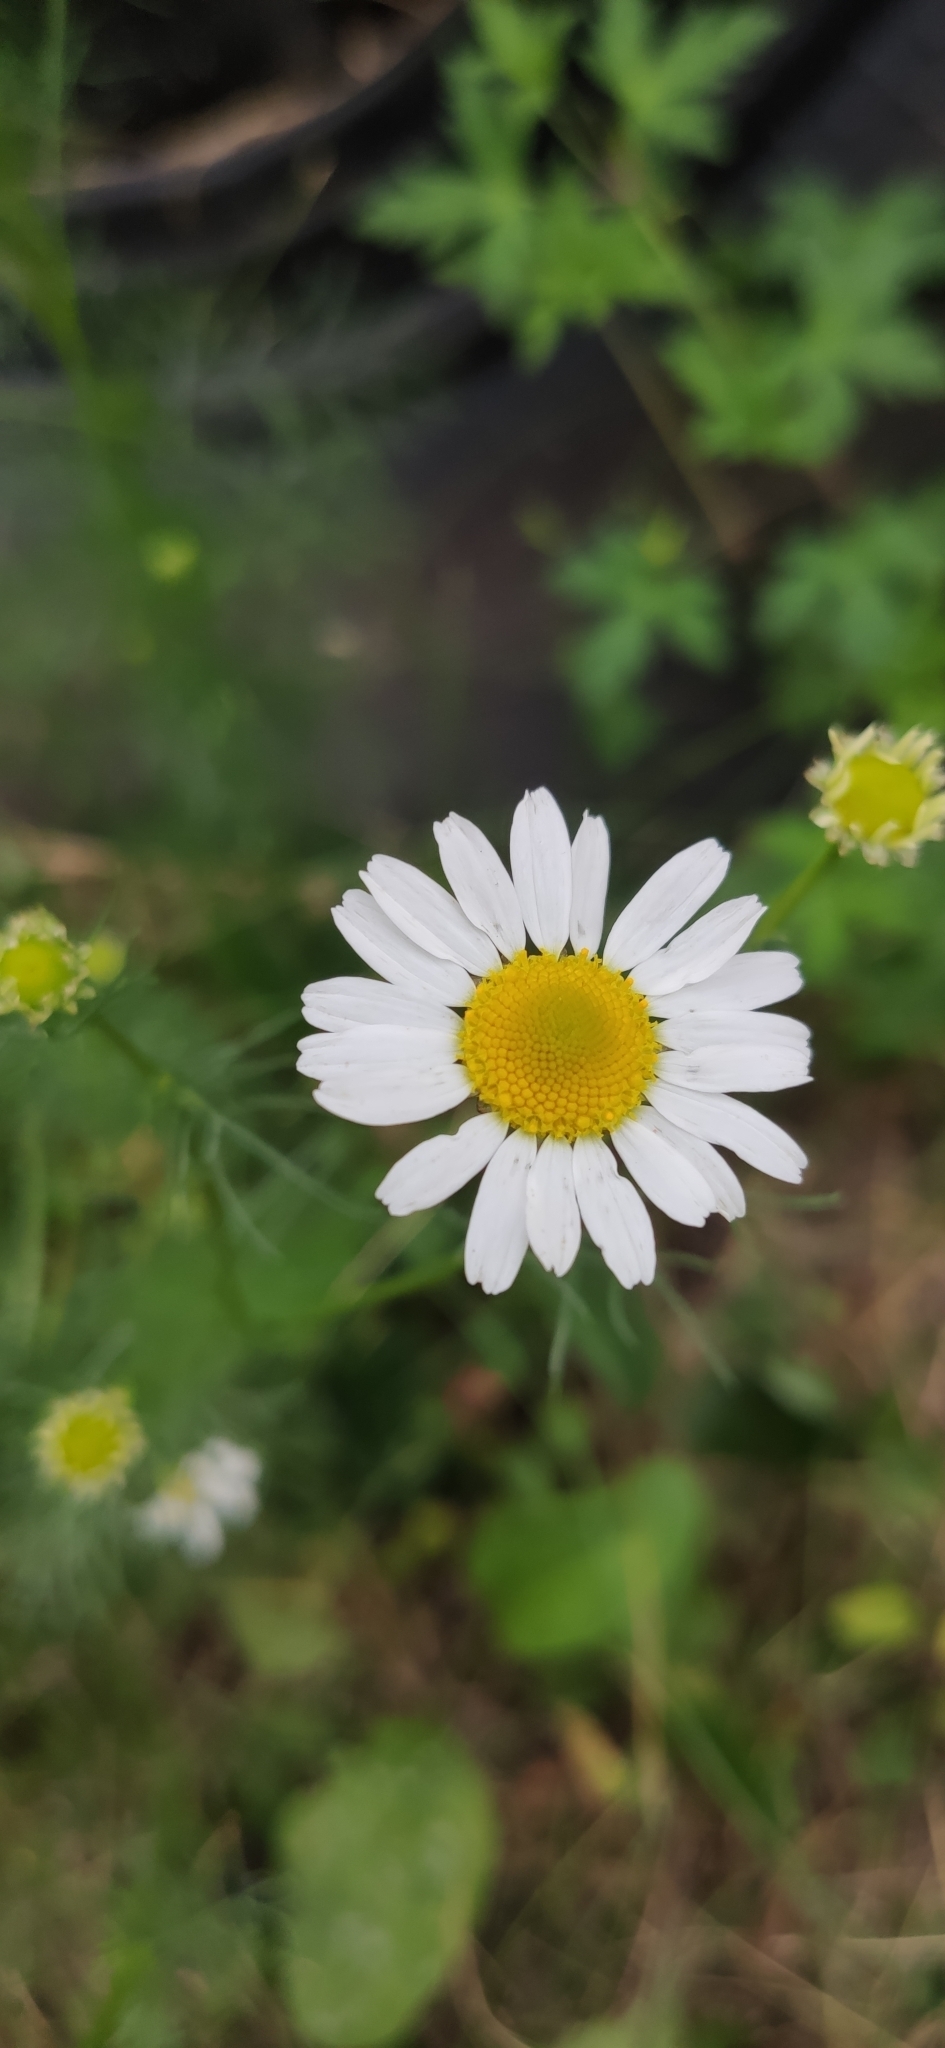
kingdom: Plantae
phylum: Tracheophyta
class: Magnoliopsida
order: Asterales
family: Asteraceae
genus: Tripleurospermum
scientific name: Tripleurospermum inodorum
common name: Scentless mayweed
